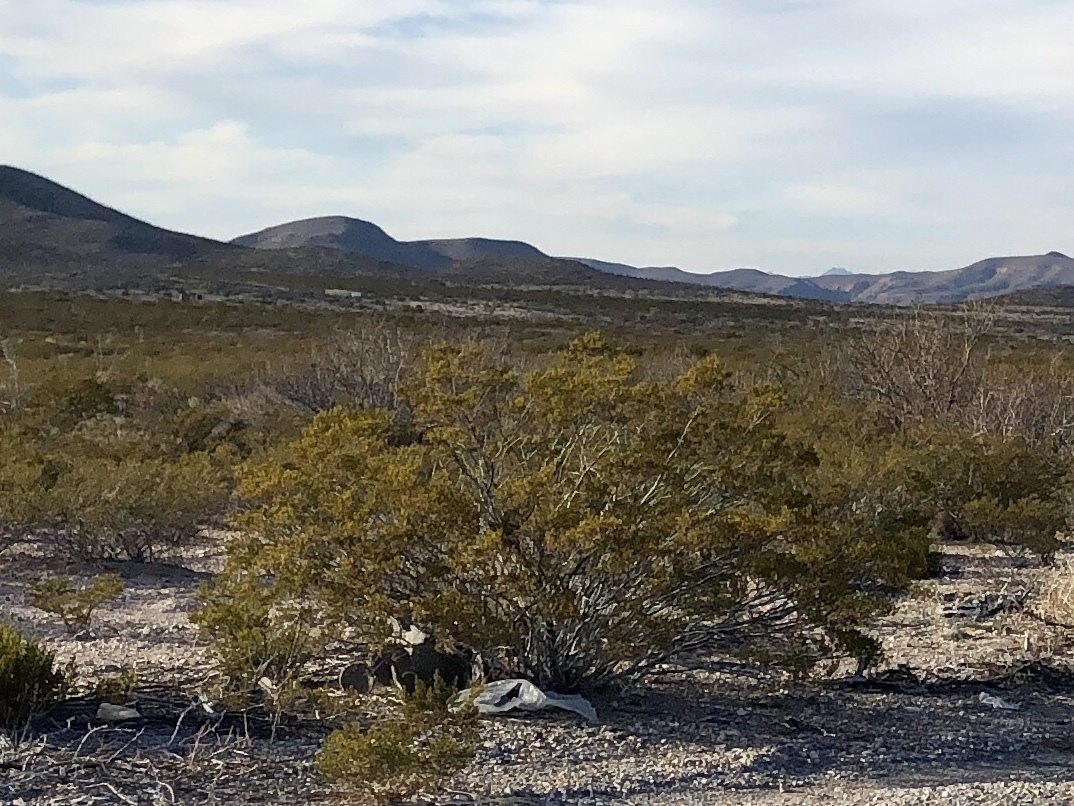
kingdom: Plantae
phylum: Tracheophyta
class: Magnoliopsida
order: Zygophyllales
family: Zygophyllaceae
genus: Larrea
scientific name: Larrea tridentata
